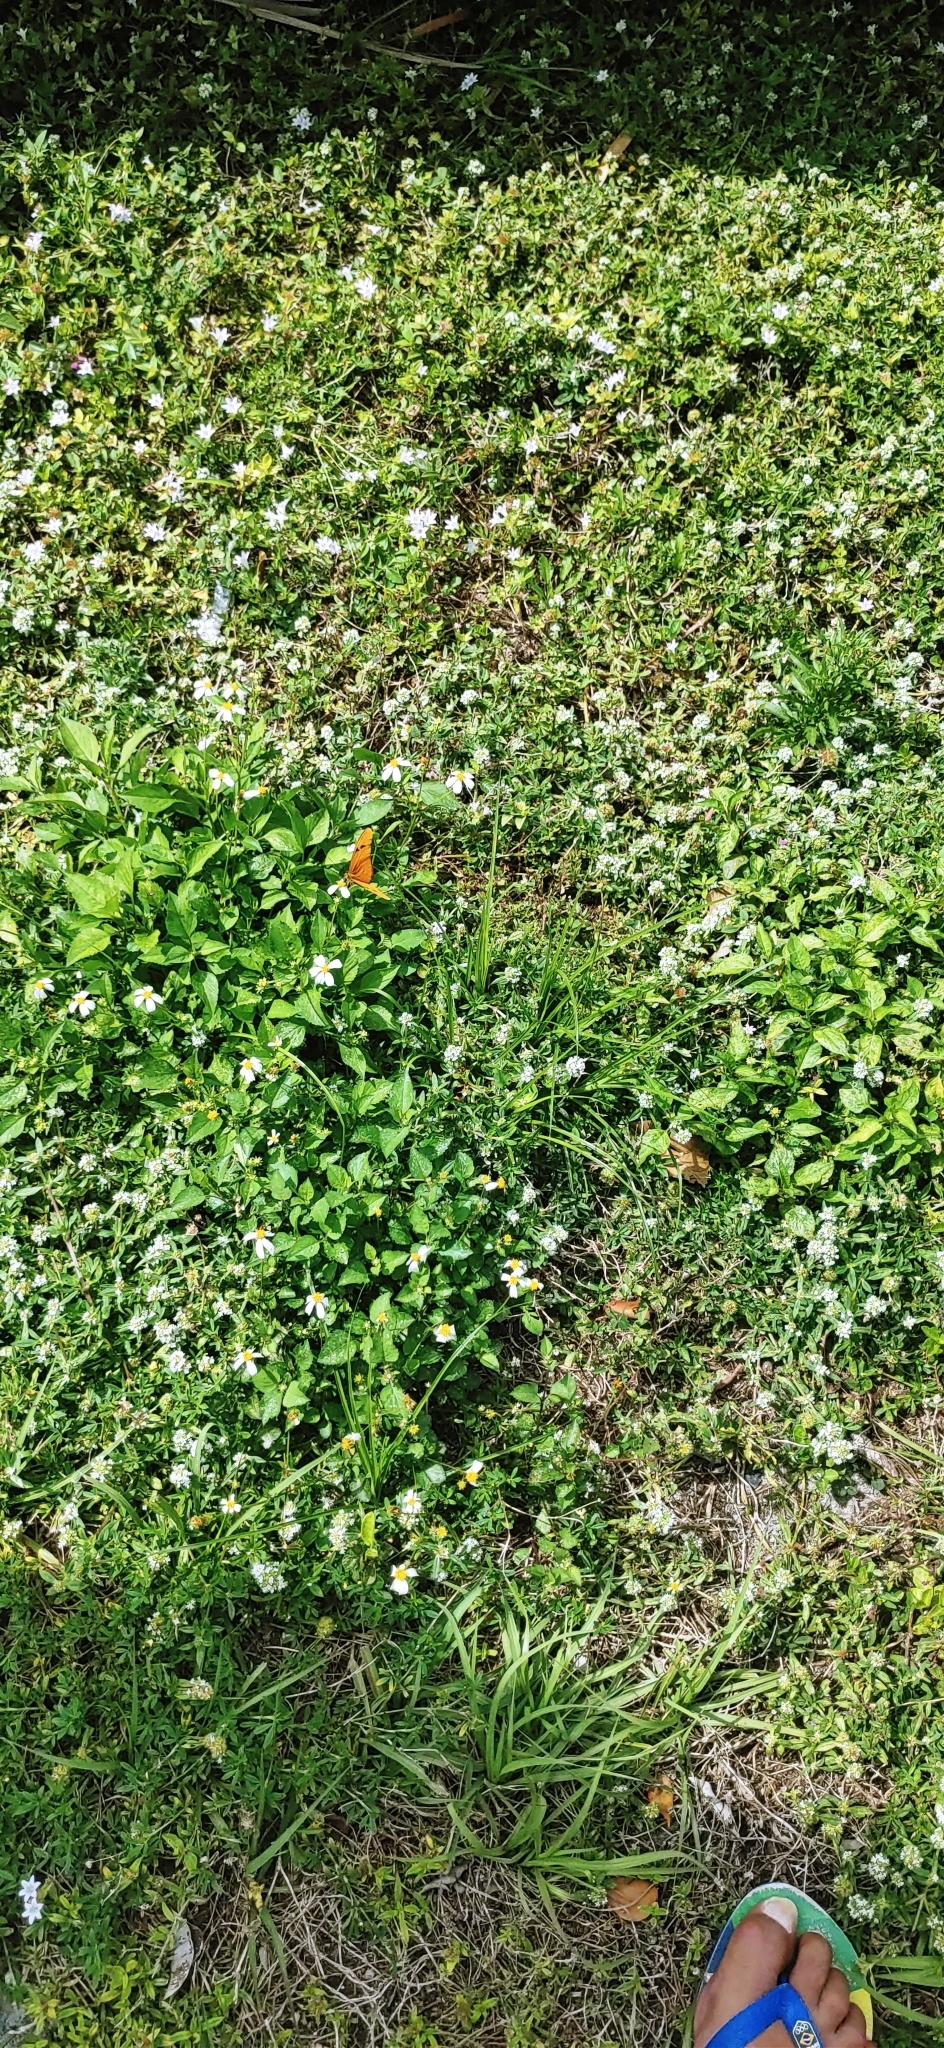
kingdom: Animalia
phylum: Arthropoda
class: Insecta
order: Lepidoptera
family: Nymphalidae
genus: Dryas
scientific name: Dryas iulia
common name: Flambeau
